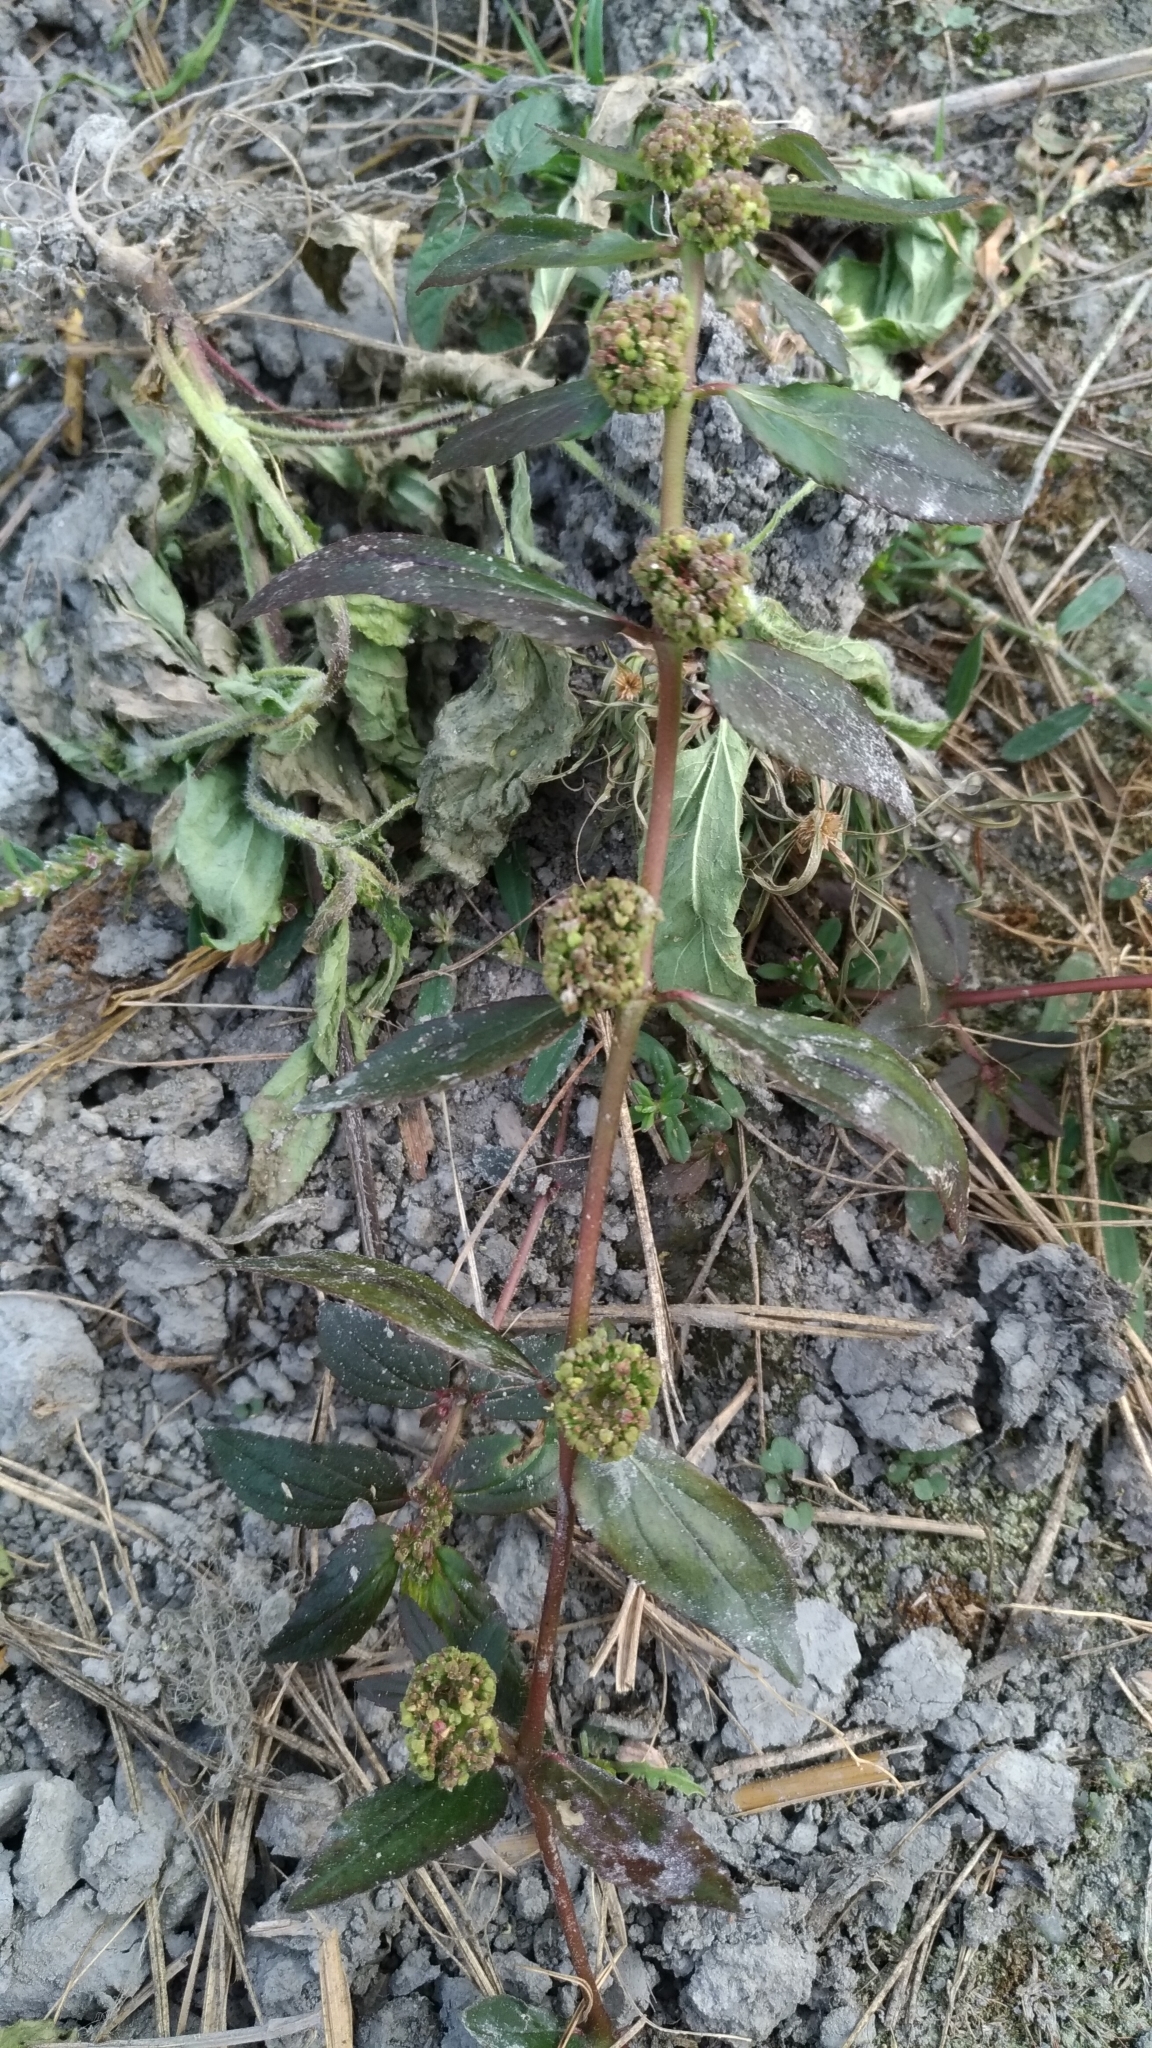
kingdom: Plantae
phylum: Tracheophyta
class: Magnoliopsida
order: Malpighiales
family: Euphorbiaceae
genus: Euphorbia
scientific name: Euphorbia hirta
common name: Pillpod sandmat
